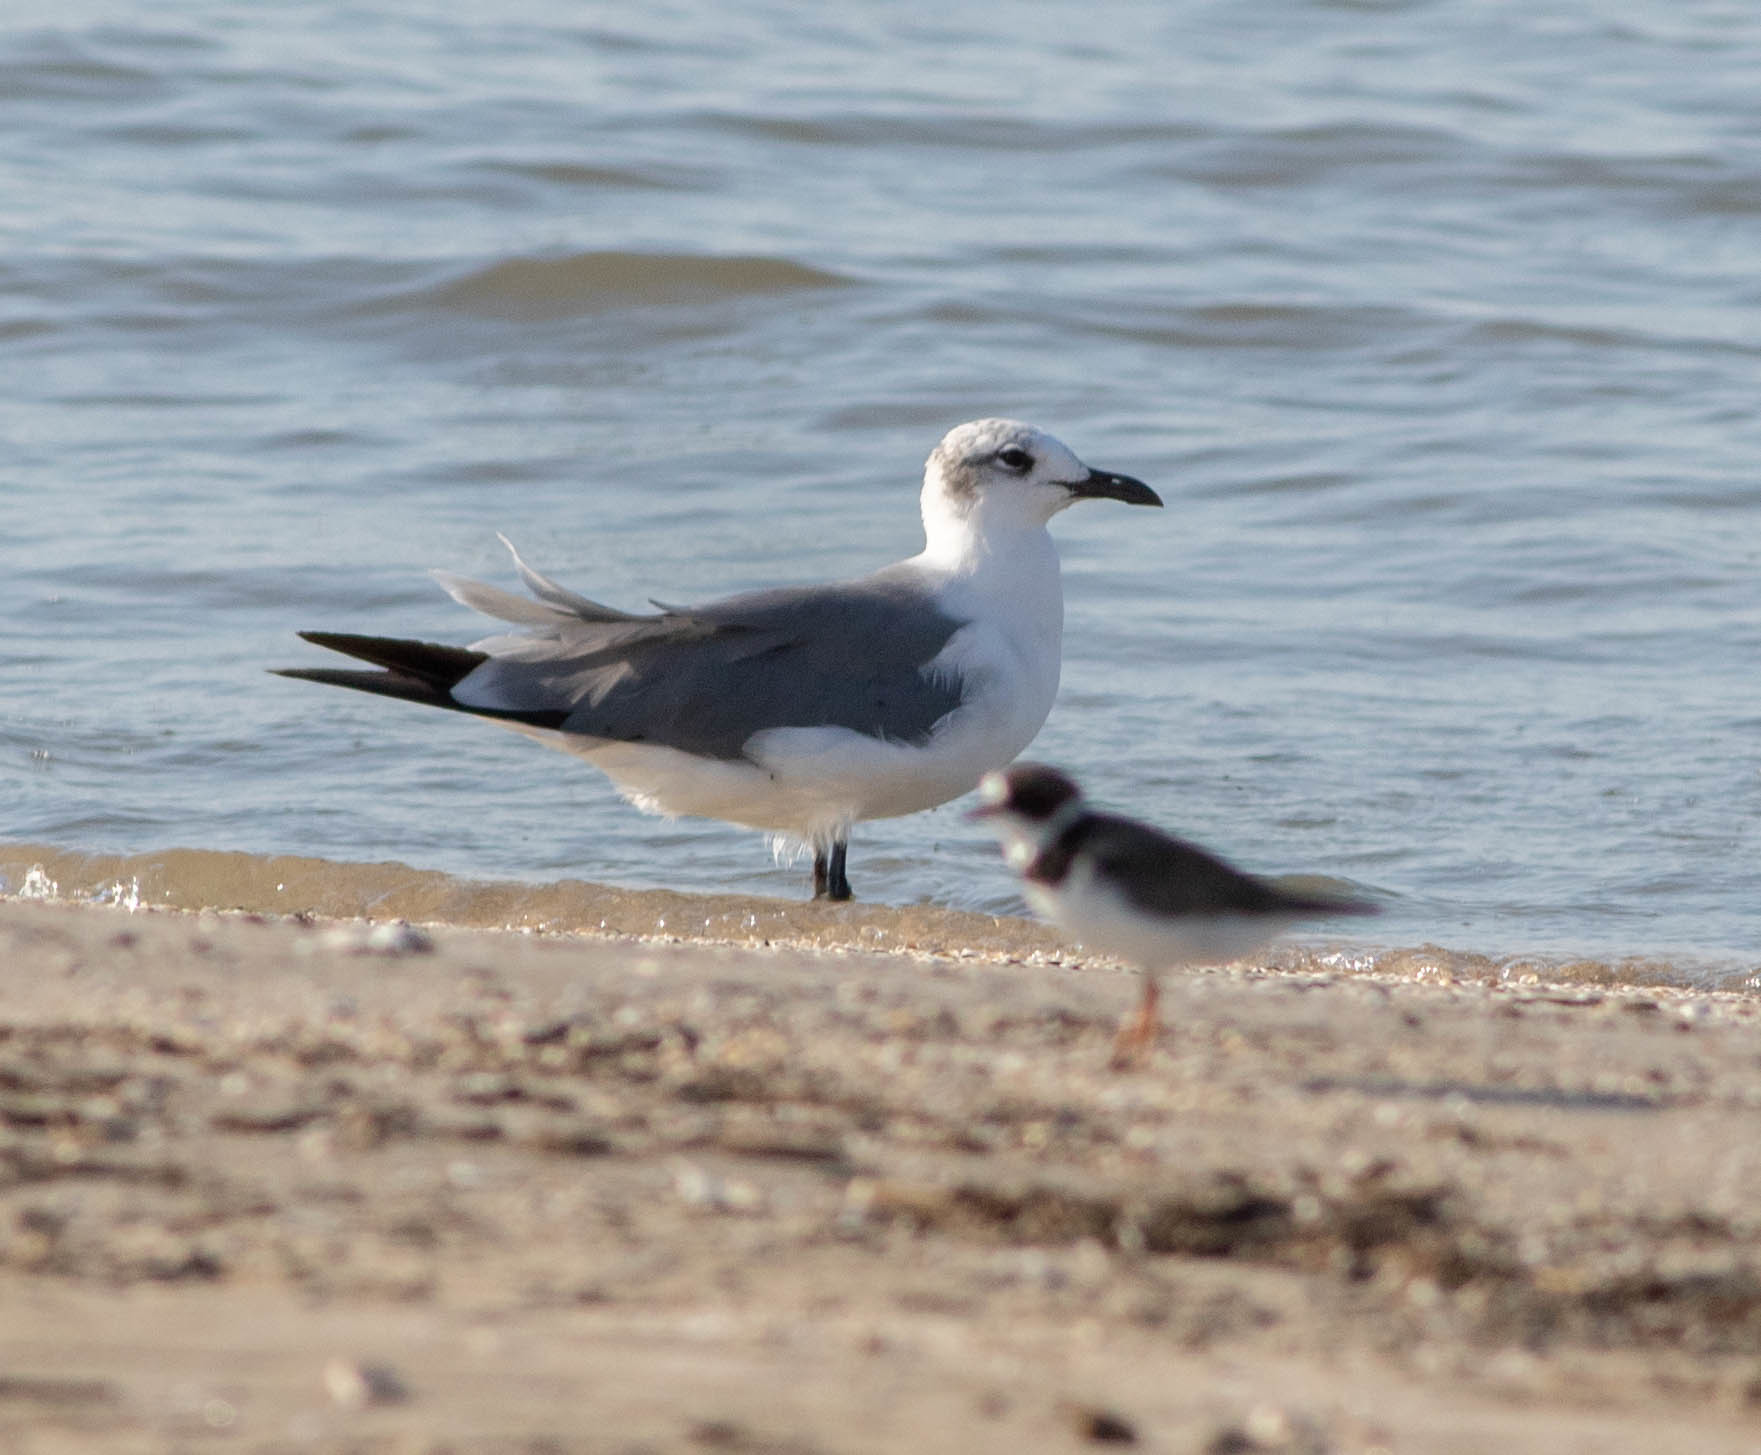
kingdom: Animalia
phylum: Chordata
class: Aves
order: Charadriiformes
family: Laridae
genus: Leucophaeus
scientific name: Leucophaeus atricilla
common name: Laughing gull
